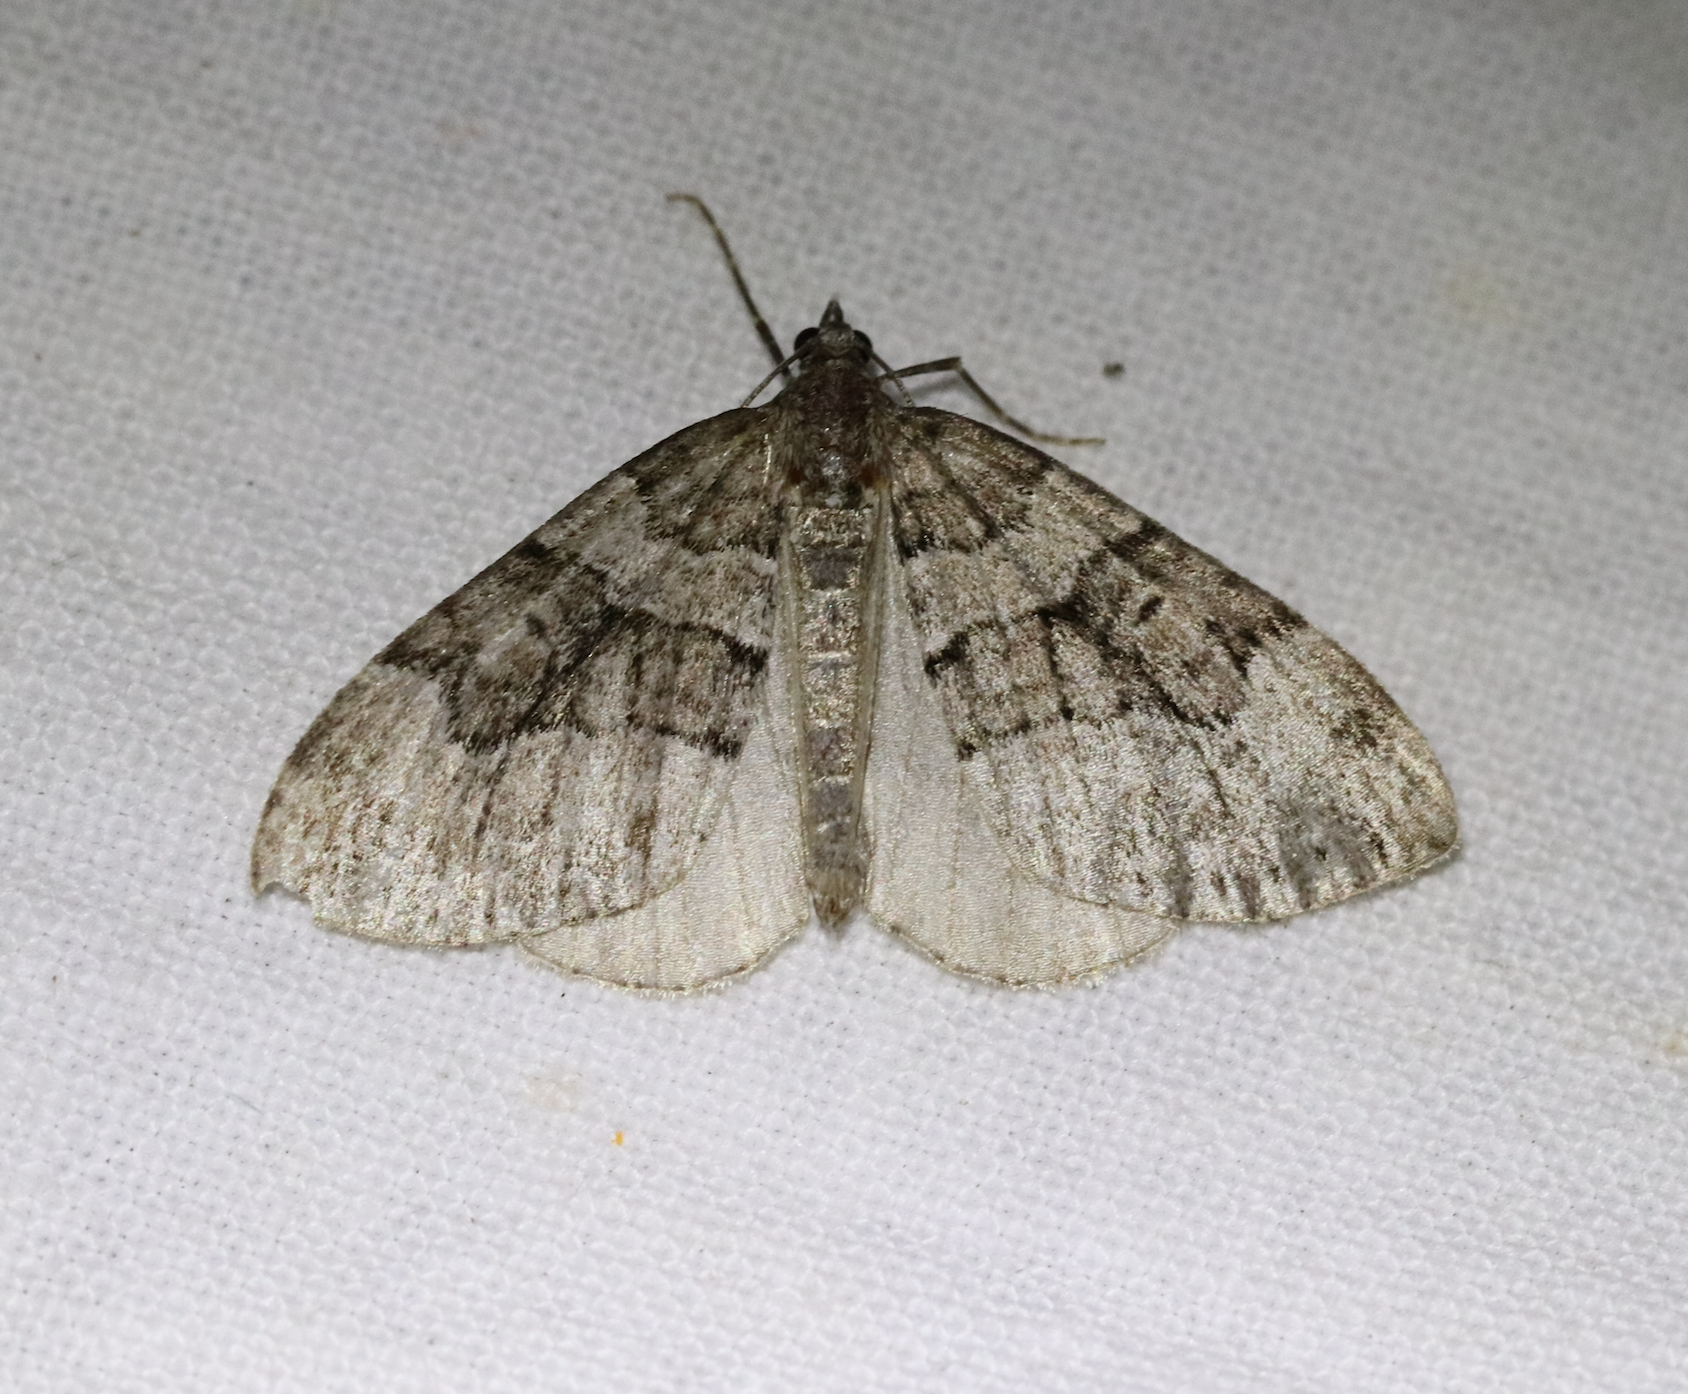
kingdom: Animalia
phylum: Arthropoda
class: Insecta
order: Lepidoptera
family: Geometridae
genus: Thera
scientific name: Thera cognata
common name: Chestnut-coloured carpet
